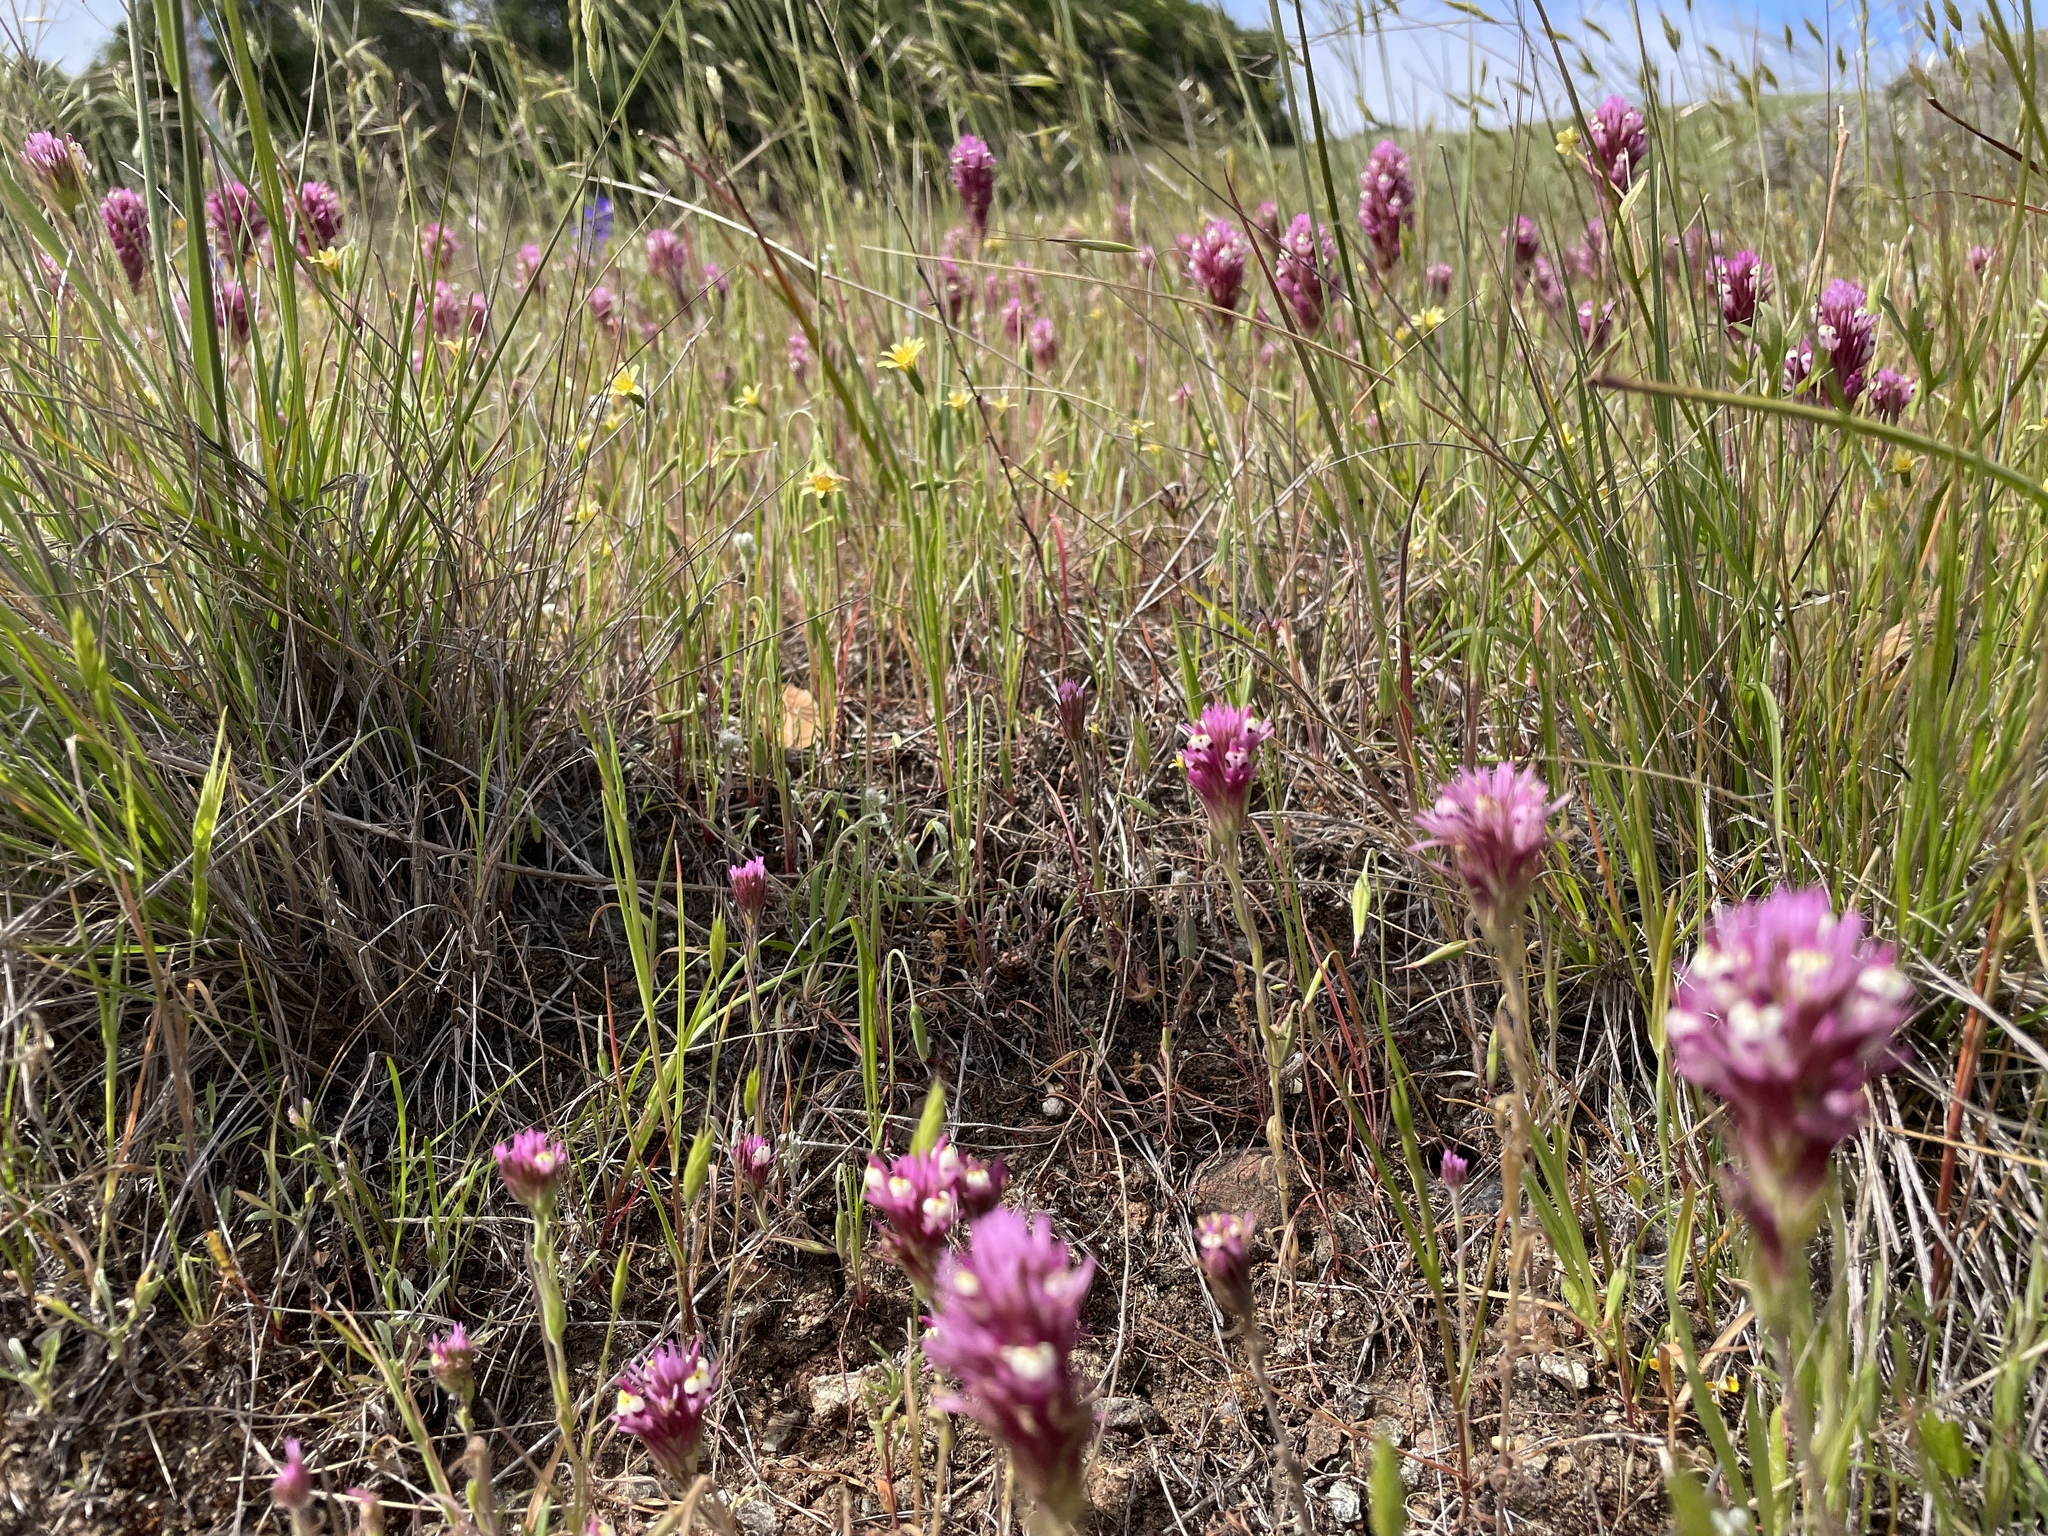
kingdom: Plantae
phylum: Tracheophyta
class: Magnoliopsida
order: Lamiales
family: Orobanchaceae
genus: Castilleja
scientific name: Castilleja densiflora
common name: Dense-flower indian paintbrush
